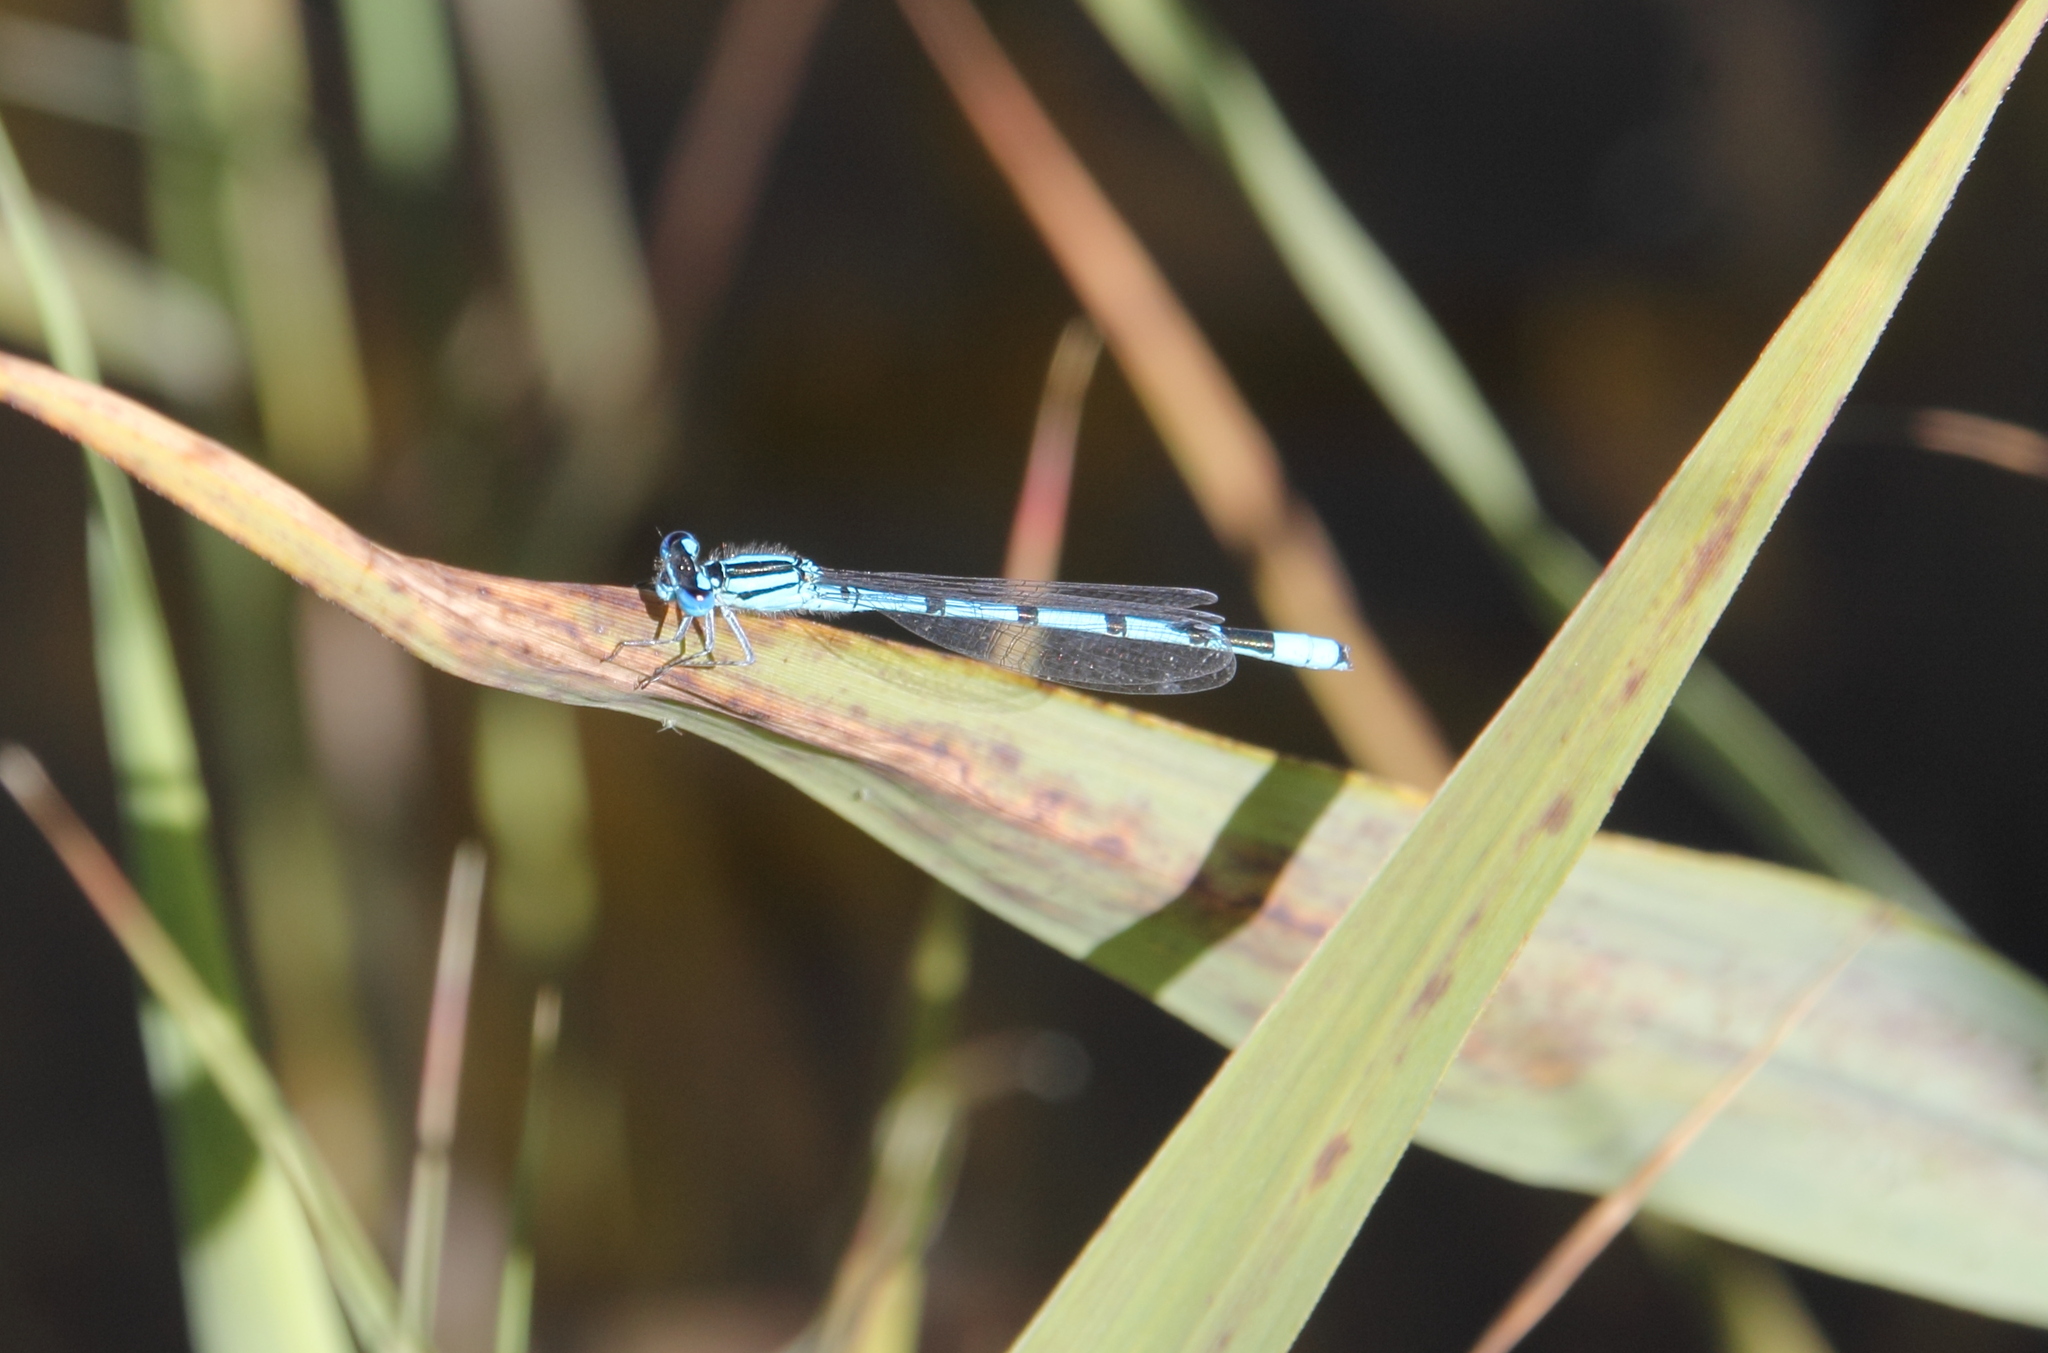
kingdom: Animalia
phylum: Arthropoda
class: Insecta
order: Odonata
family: Coenagrionidae
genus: Enallagma
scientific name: Enallagma cyathigerum
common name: Common blue damselfly
